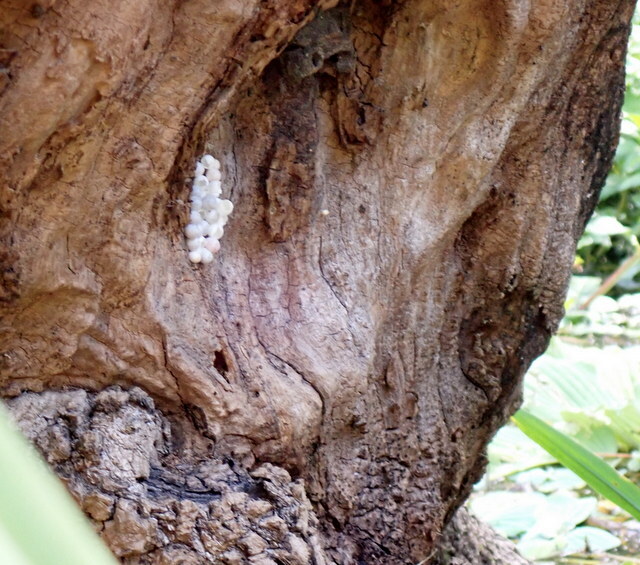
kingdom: Animalia
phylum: Mollusca
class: Gastropoda
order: Architaenioglossa
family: Ampullariidae
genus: Pomacea
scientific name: Pomacea paludosa
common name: Florida applesnail
